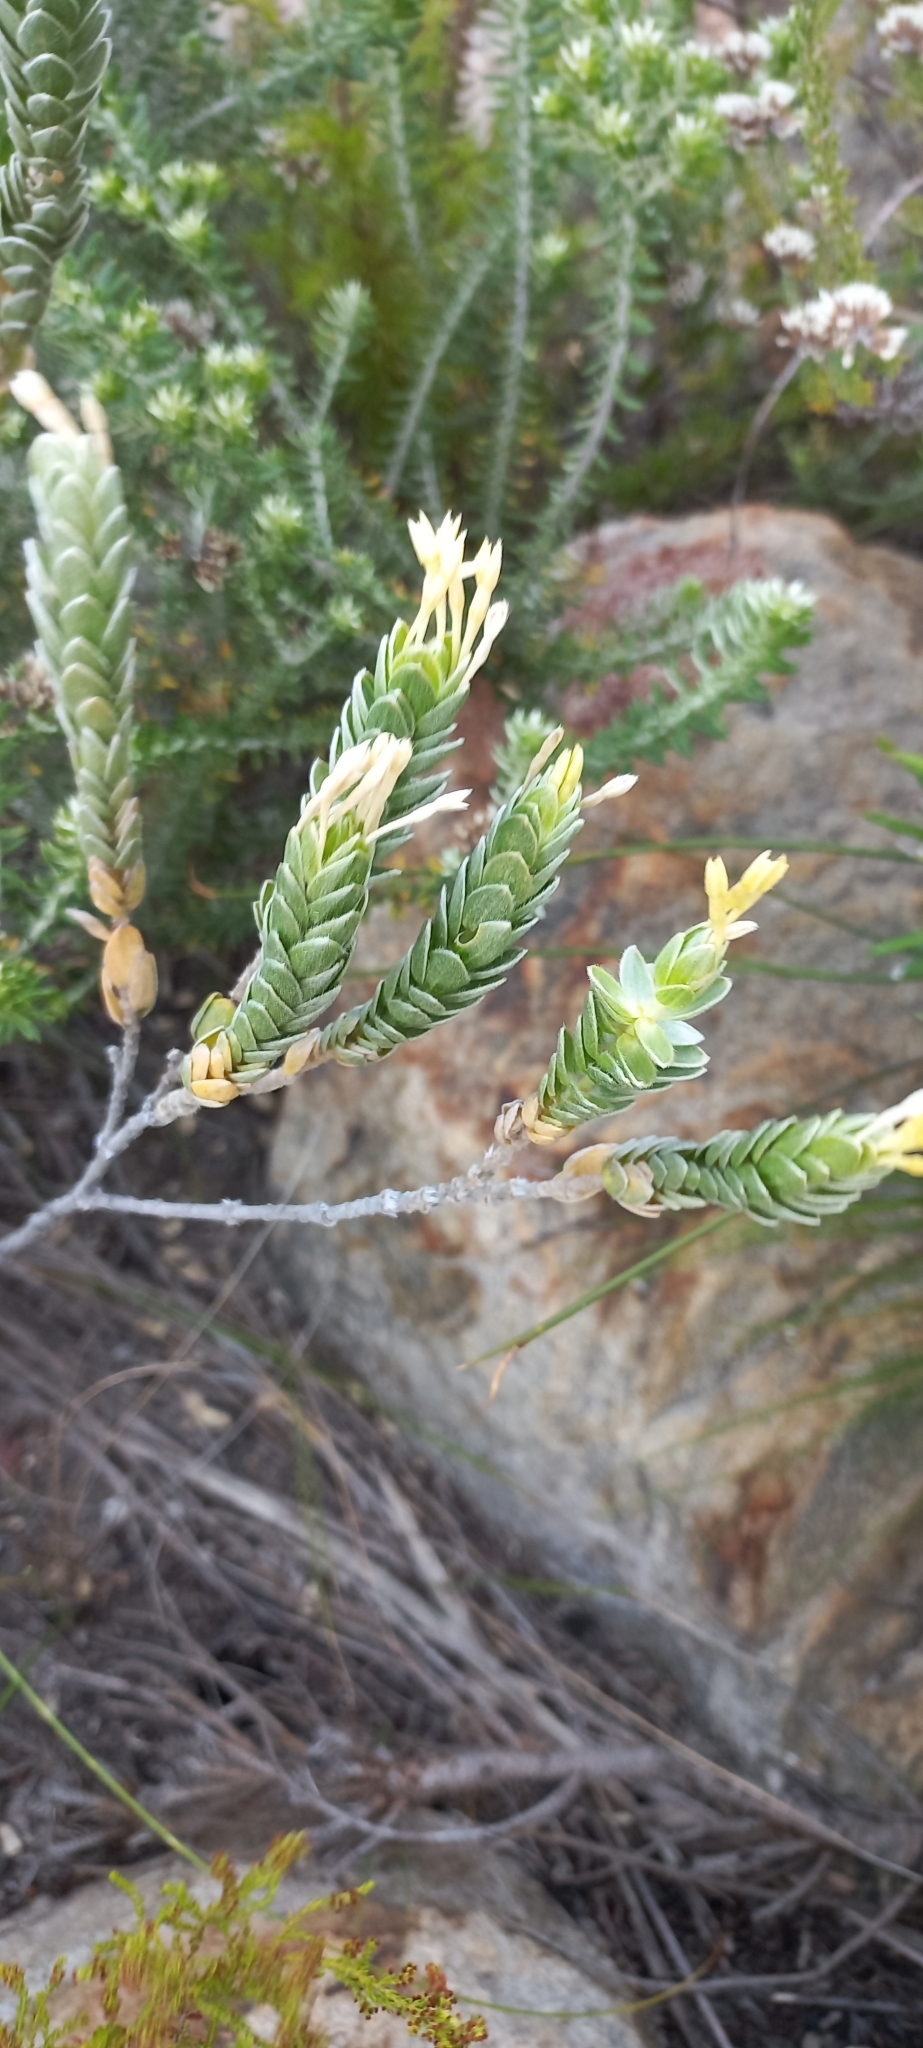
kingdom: Plantae
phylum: Tracheophyta
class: Magnoliopsida
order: Malvales
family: Thymelaeaceae
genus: Gnidia
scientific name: Gnidia anomala
